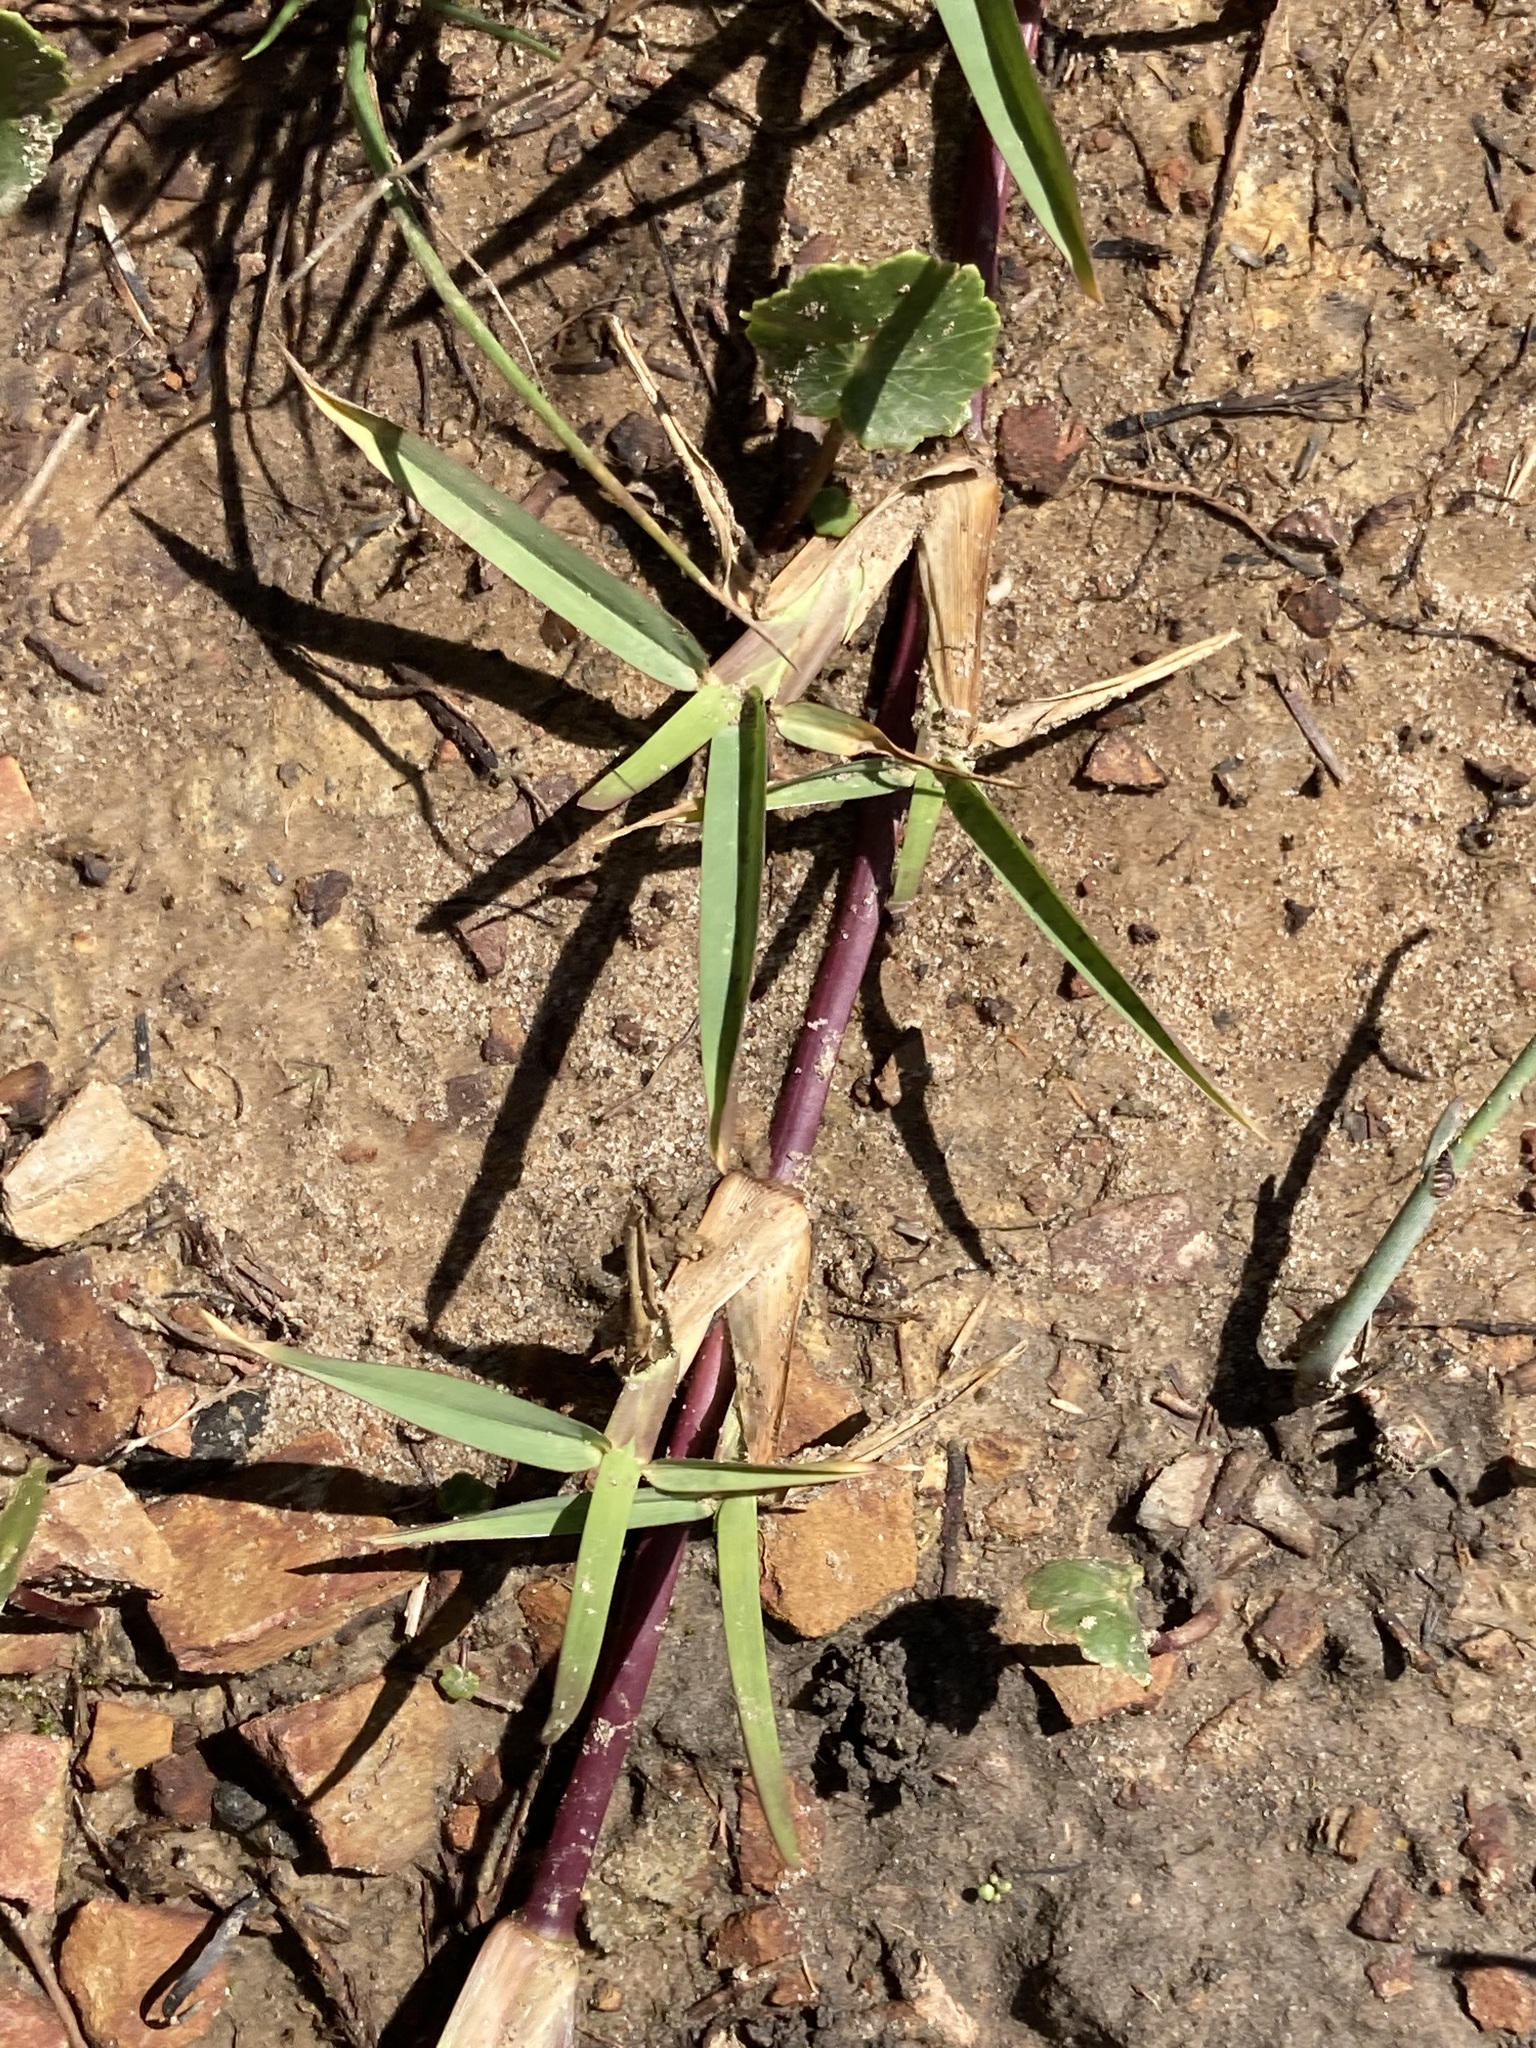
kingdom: Plantae
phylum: Tracheophyta
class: Liliopsida
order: Poales
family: Poaceae
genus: Stenotaphrum
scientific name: Stenotaphrum secundatum
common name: St. augustine grass
